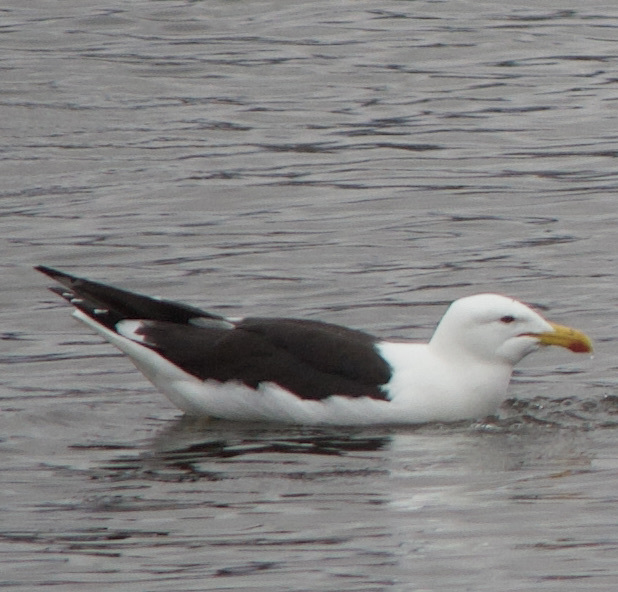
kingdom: Animalia
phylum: Chordata
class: Aves
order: Charadriiformes
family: Laridae
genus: Larus
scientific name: Larus dominicanus
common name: Kelp gull
